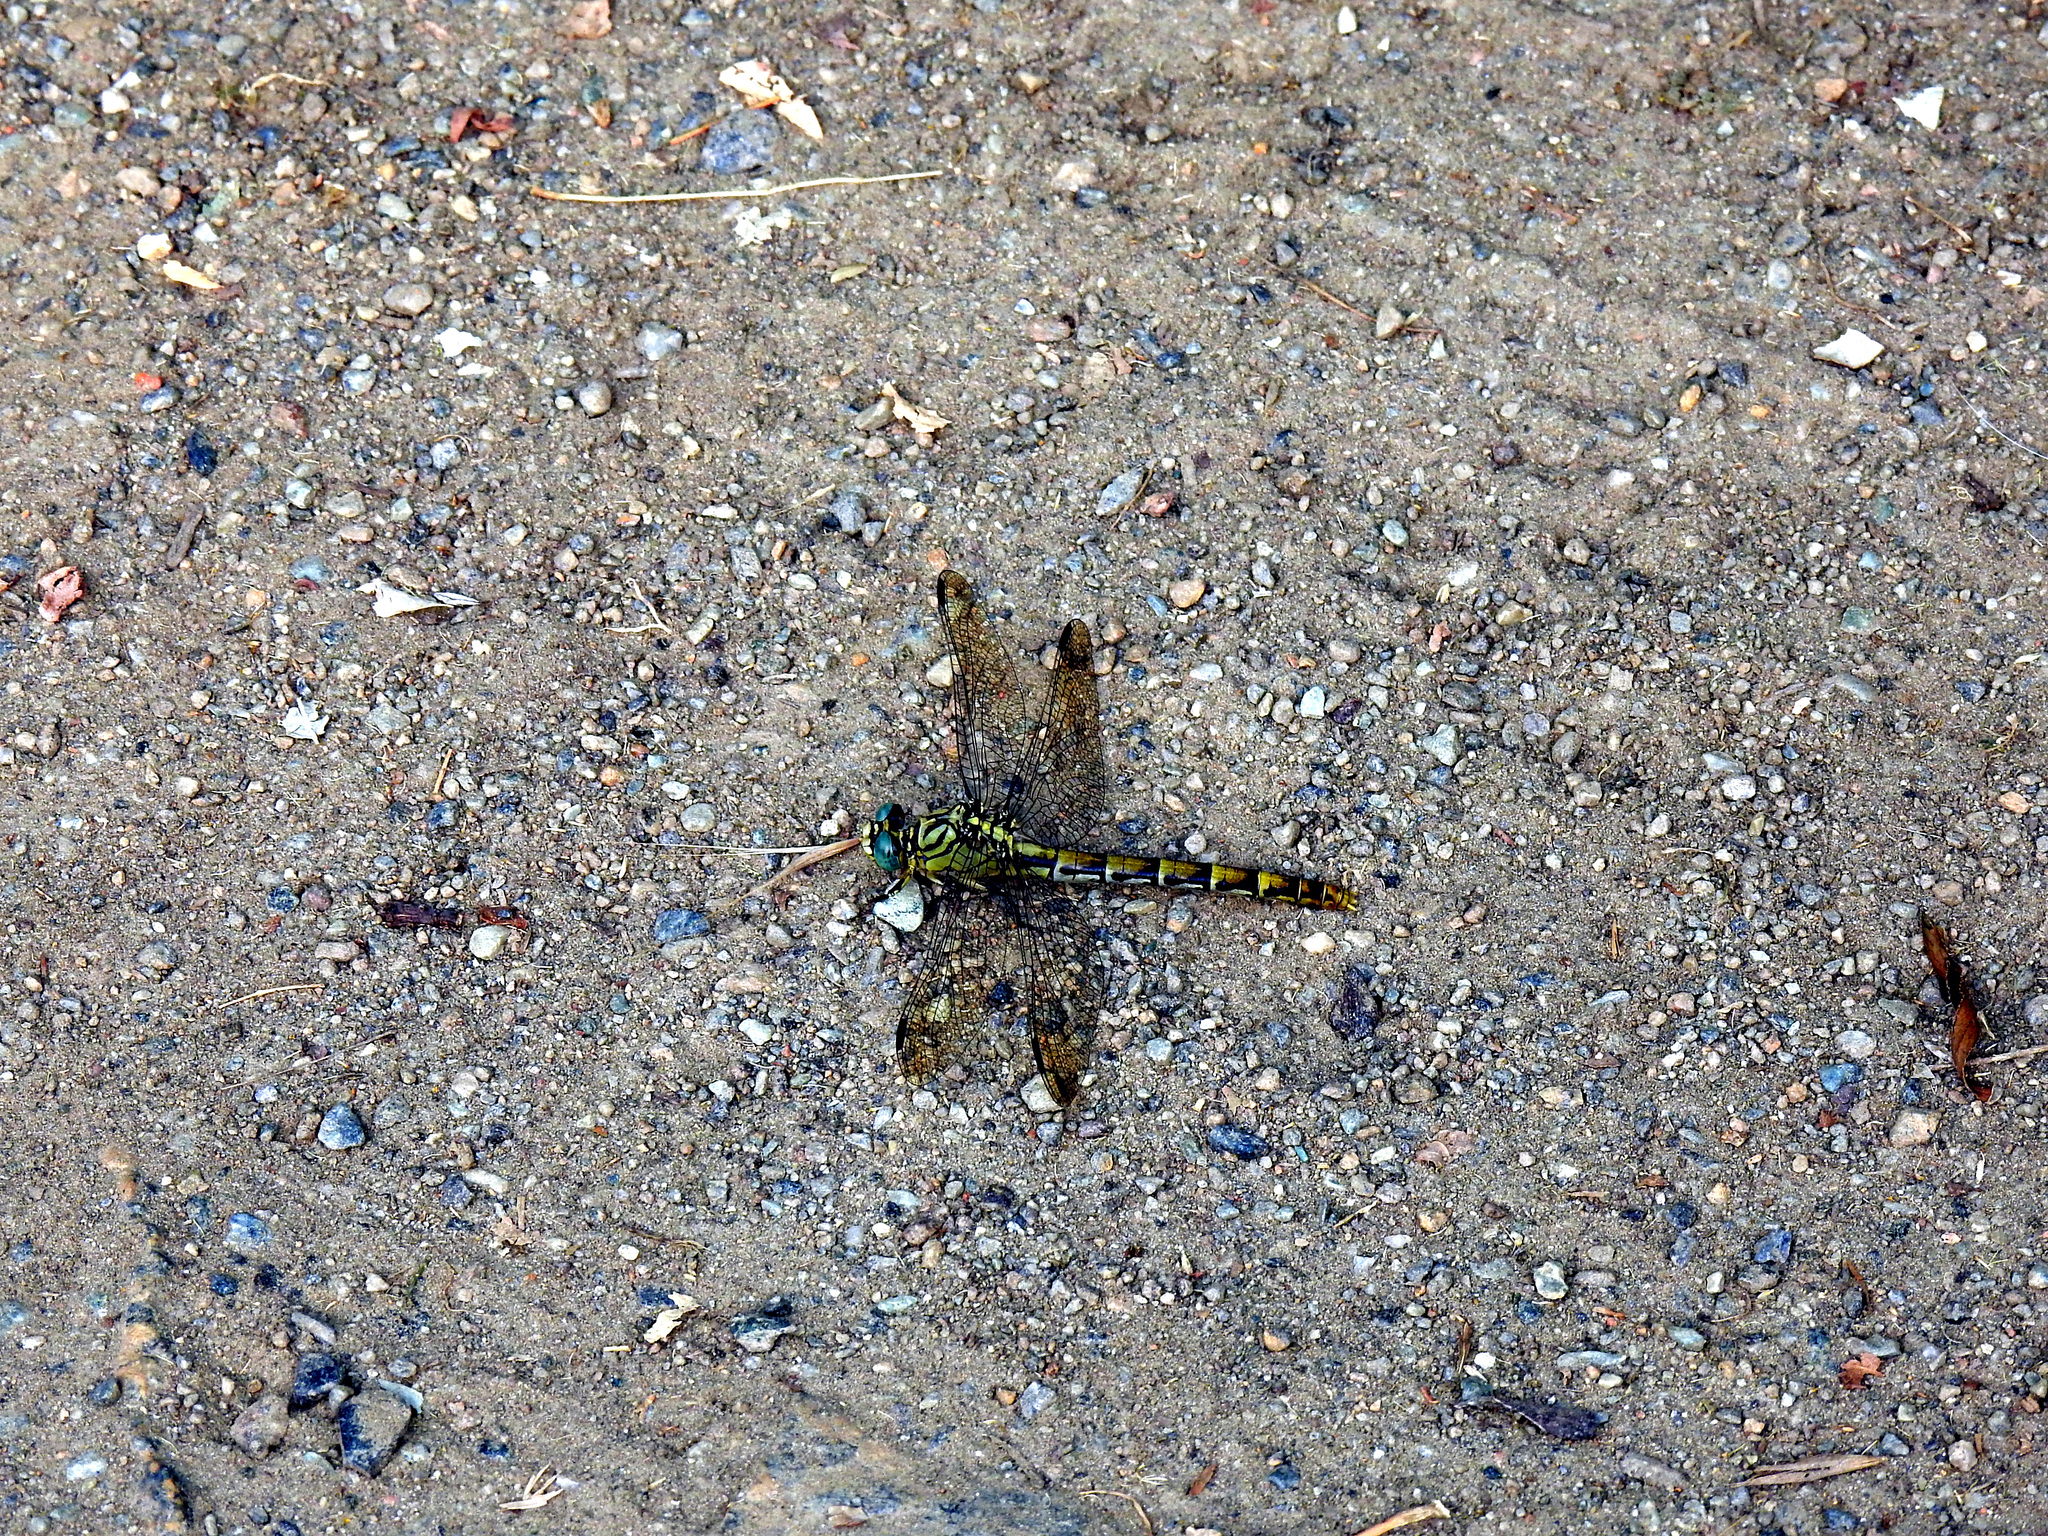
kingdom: Animalia
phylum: Arthropoda
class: Insecta
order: Odonata
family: Gomphidae
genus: Onychogomphus
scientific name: Onychogomphus forcipatus
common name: Small pincertail
